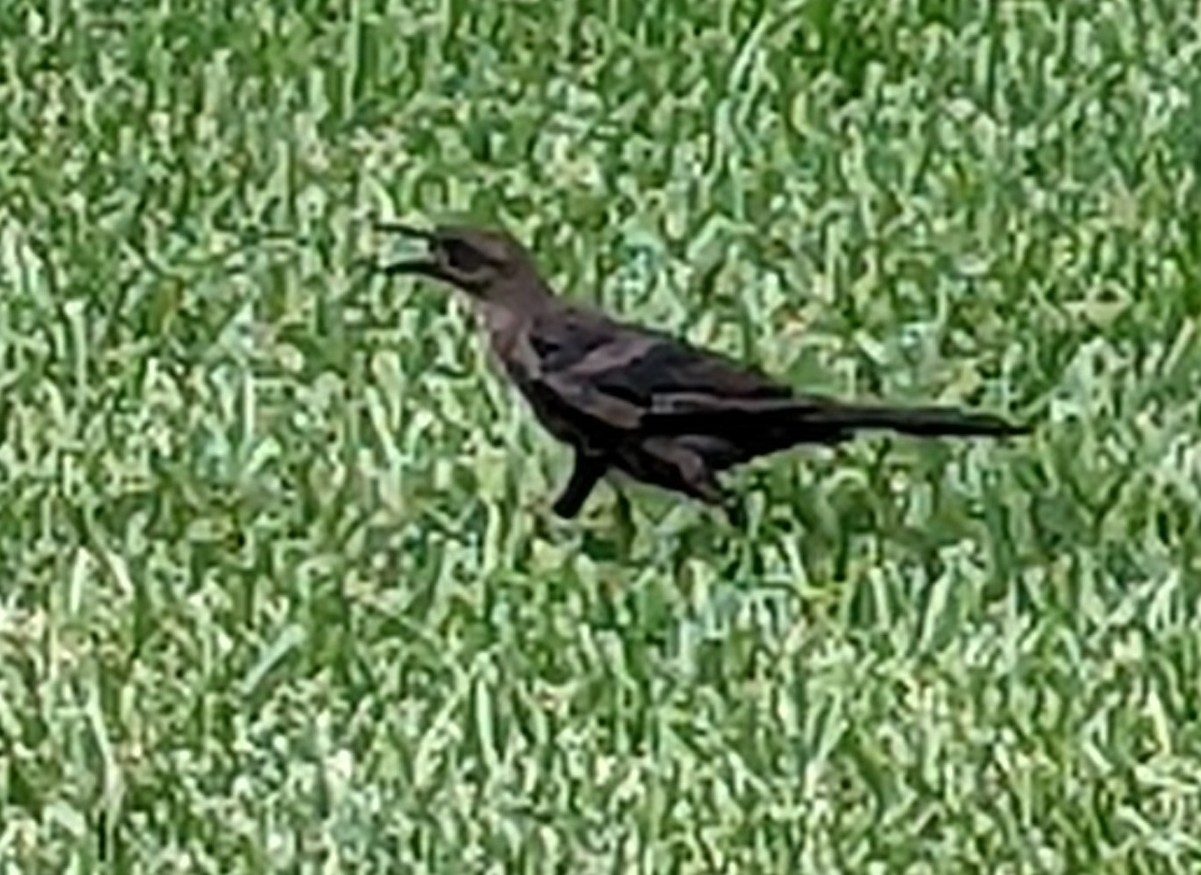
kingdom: Animalia
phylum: Chordata
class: Aves
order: Passeriformes
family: Icteridae
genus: Quiscalus
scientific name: Quiscalus mexicanus
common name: Great-tailed grackle
